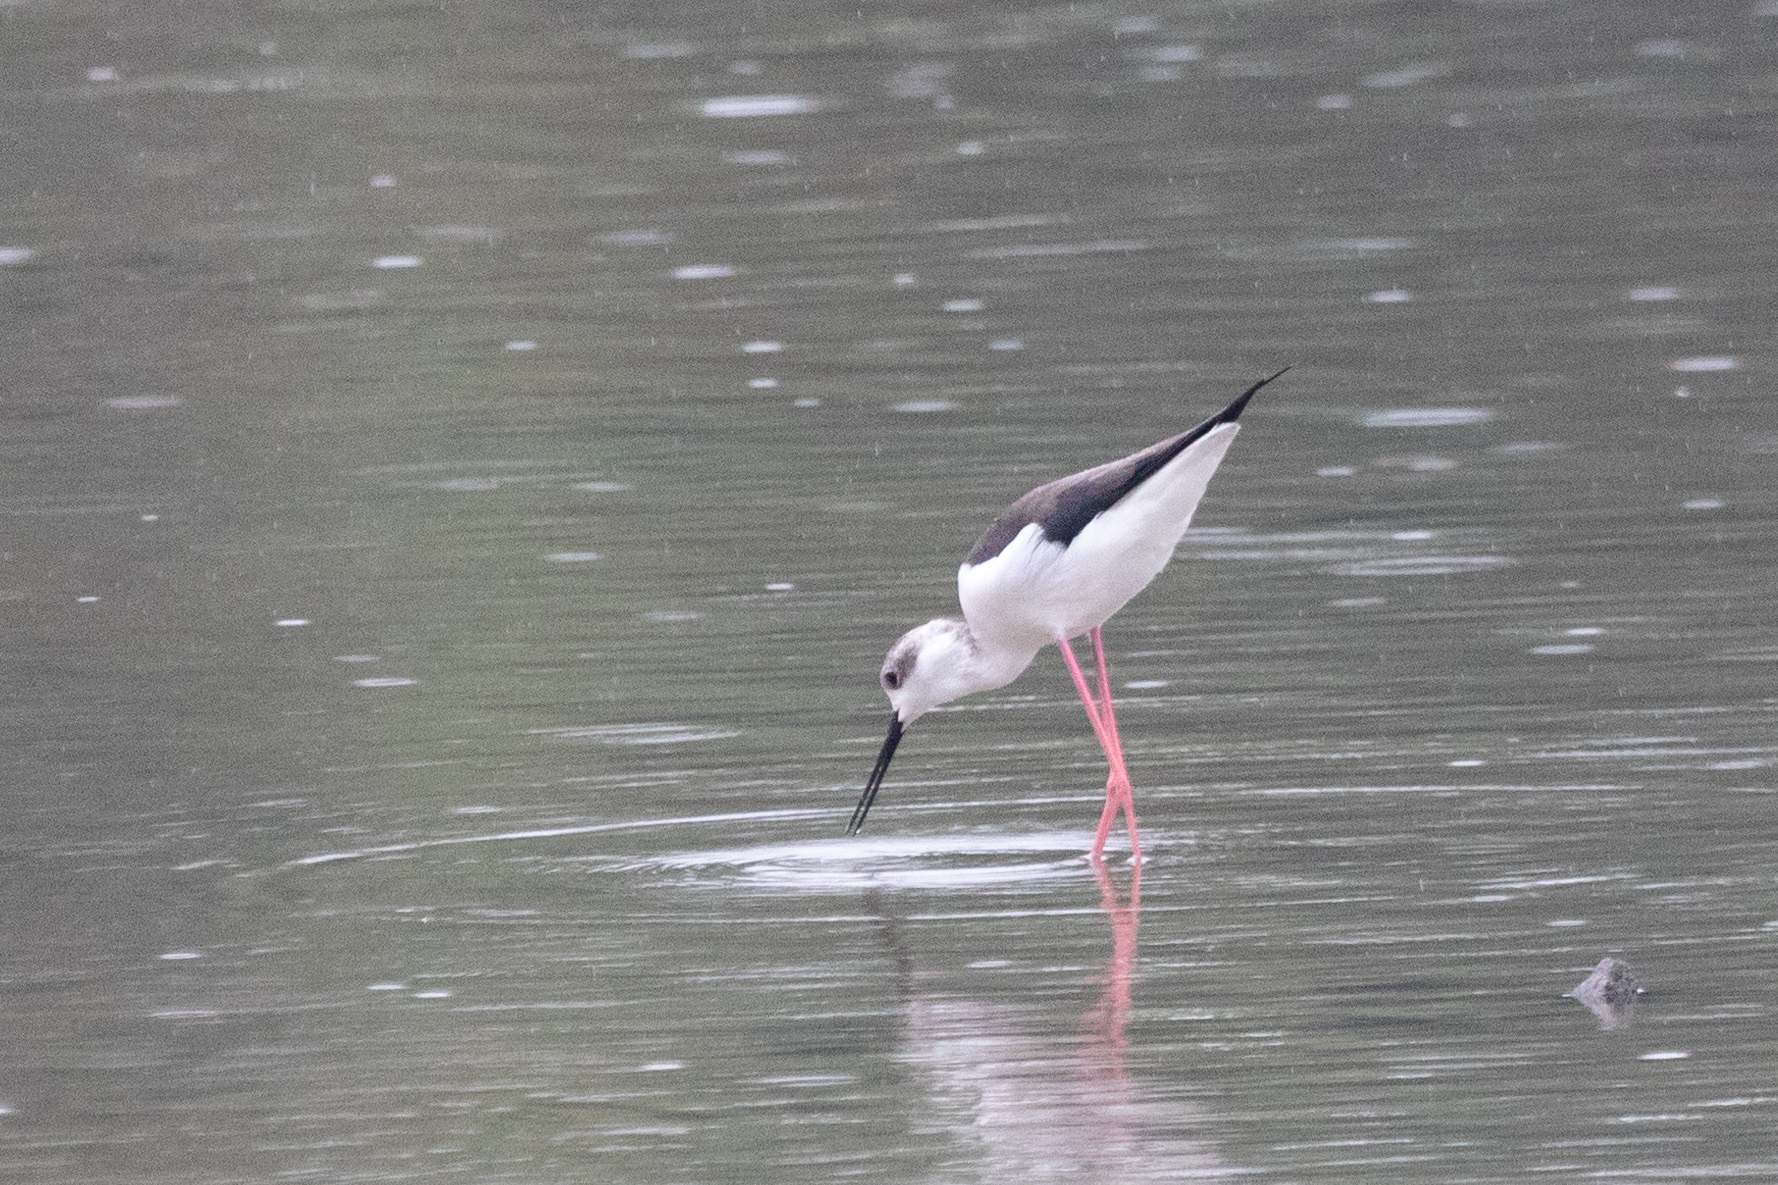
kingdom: Animalia
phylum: Chordata
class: Aves
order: Charadriiformes
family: Recurvirostridae
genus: Himantopus
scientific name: Himantopus himantopus
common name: Black-winged stilt
